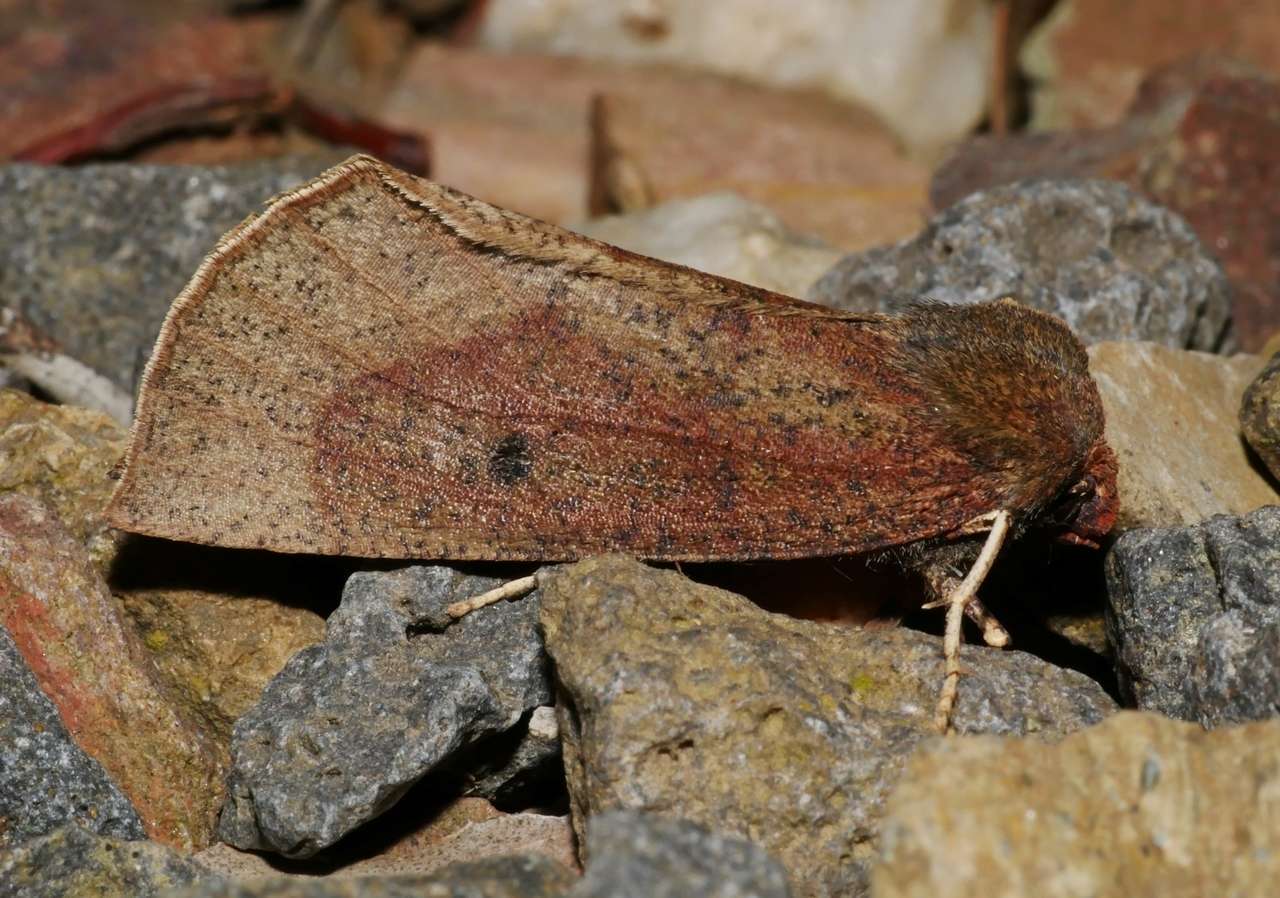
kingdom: Animalia
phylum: Arthropoda
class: Insecta
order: Lepidoptera
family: Geometridae
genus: Fisera
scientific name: Fisera belidearia
